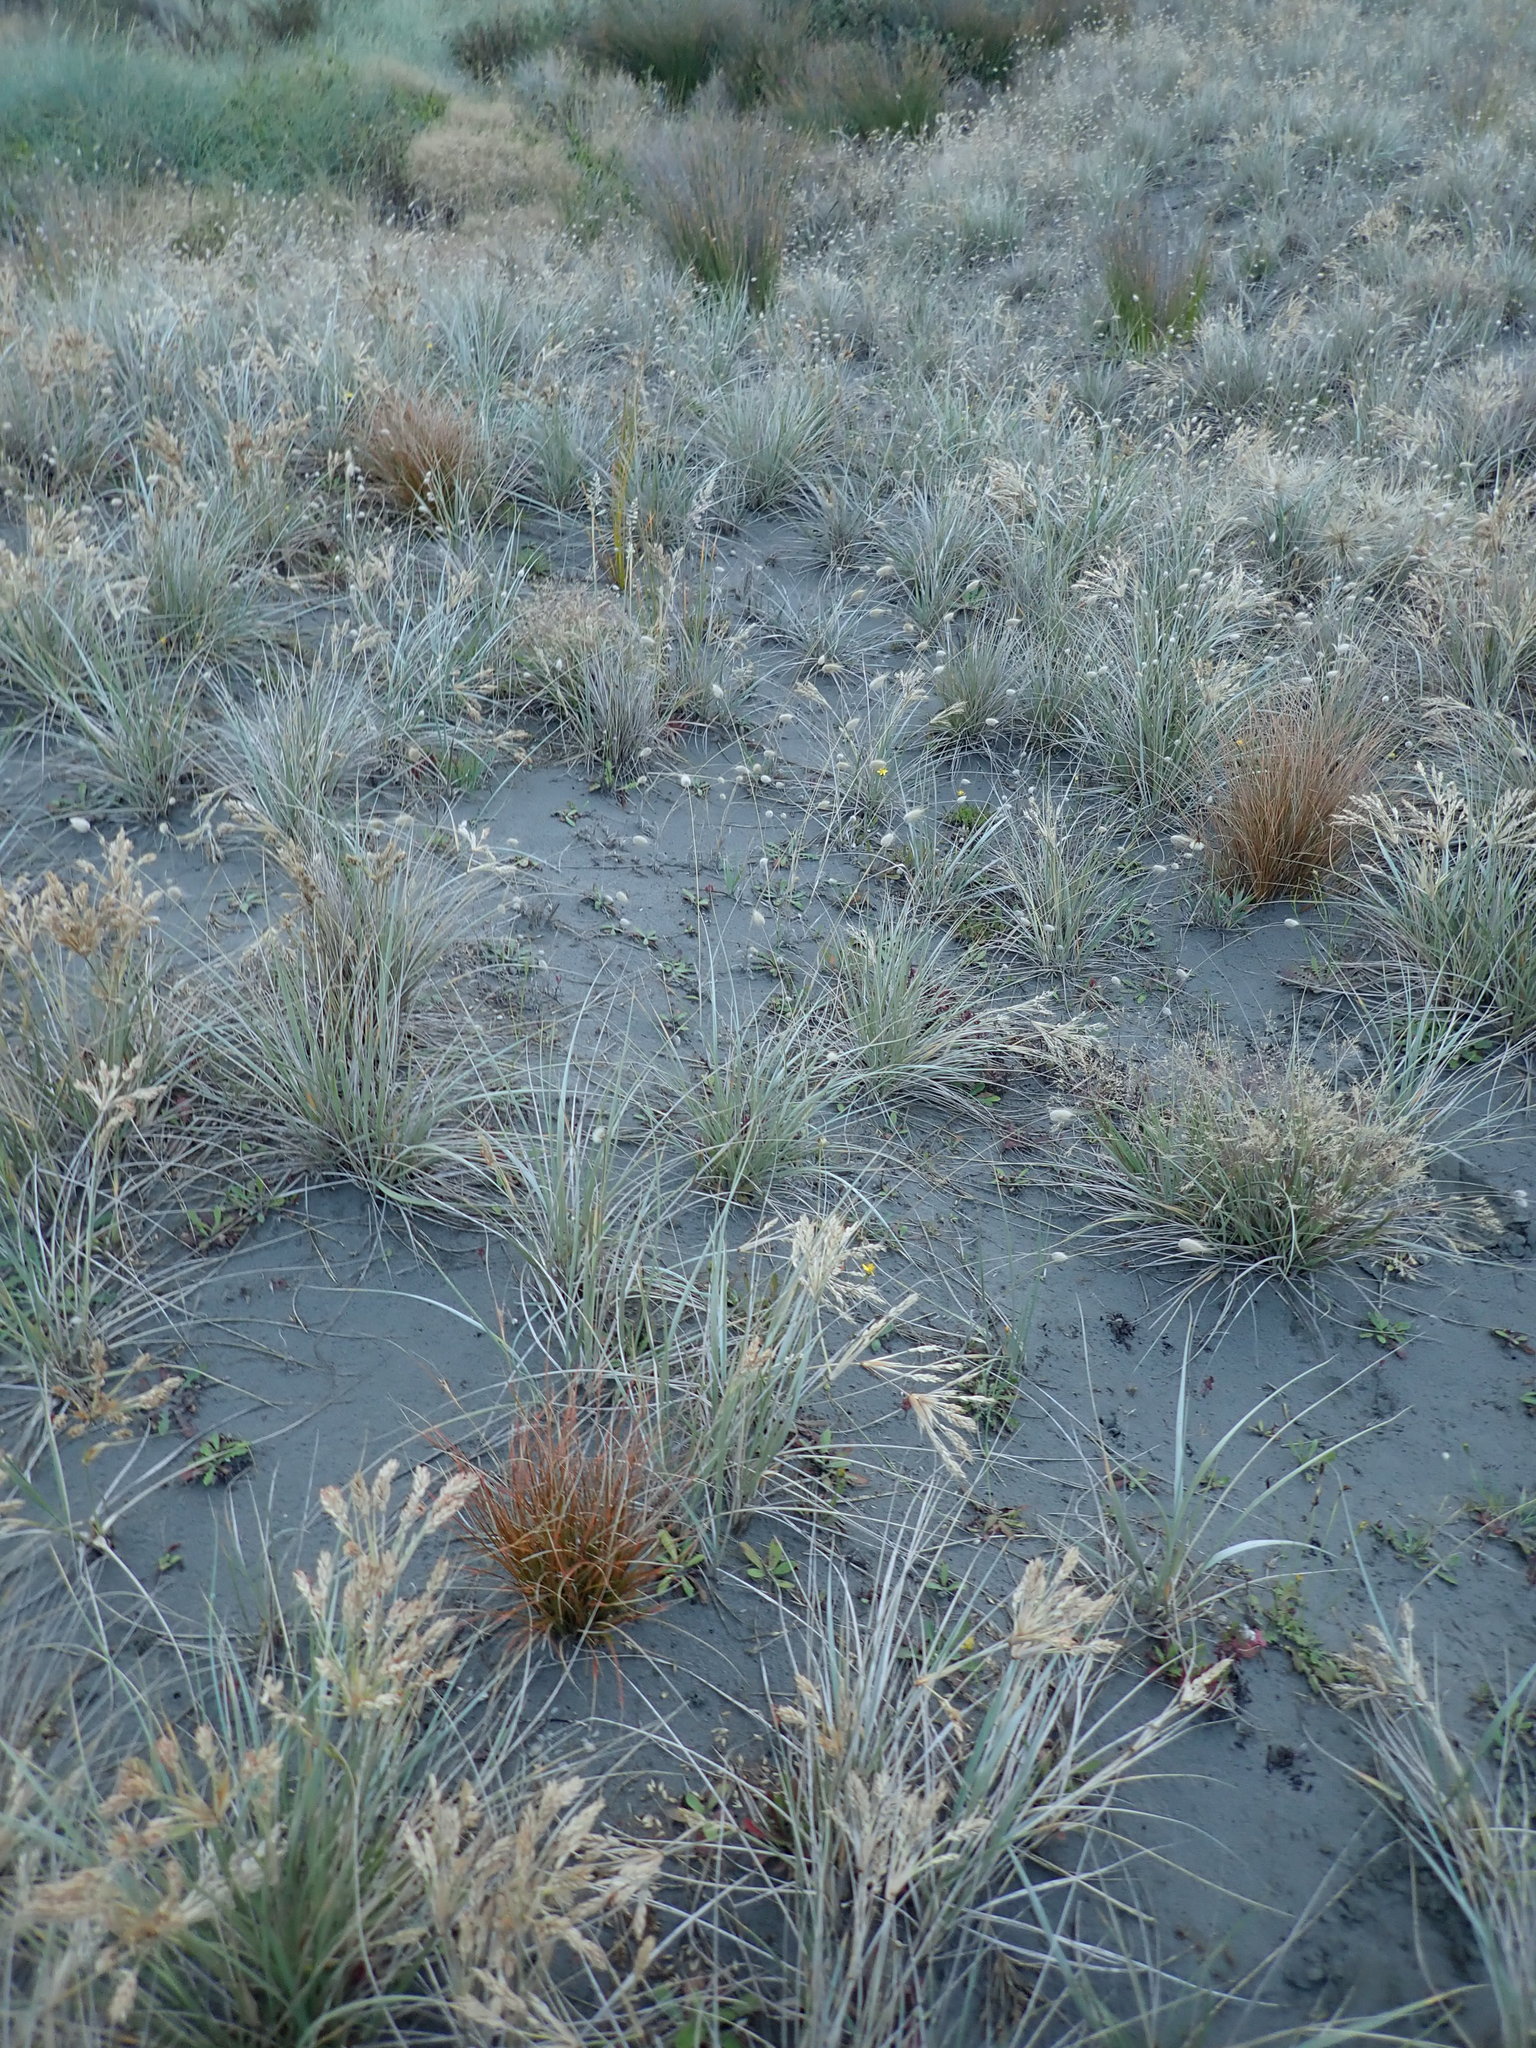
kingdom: Plantae
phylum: Tracheophyta
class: Liliopsida
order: Poales
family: Cyperaceae
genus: Carex
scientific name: Carex testacea
